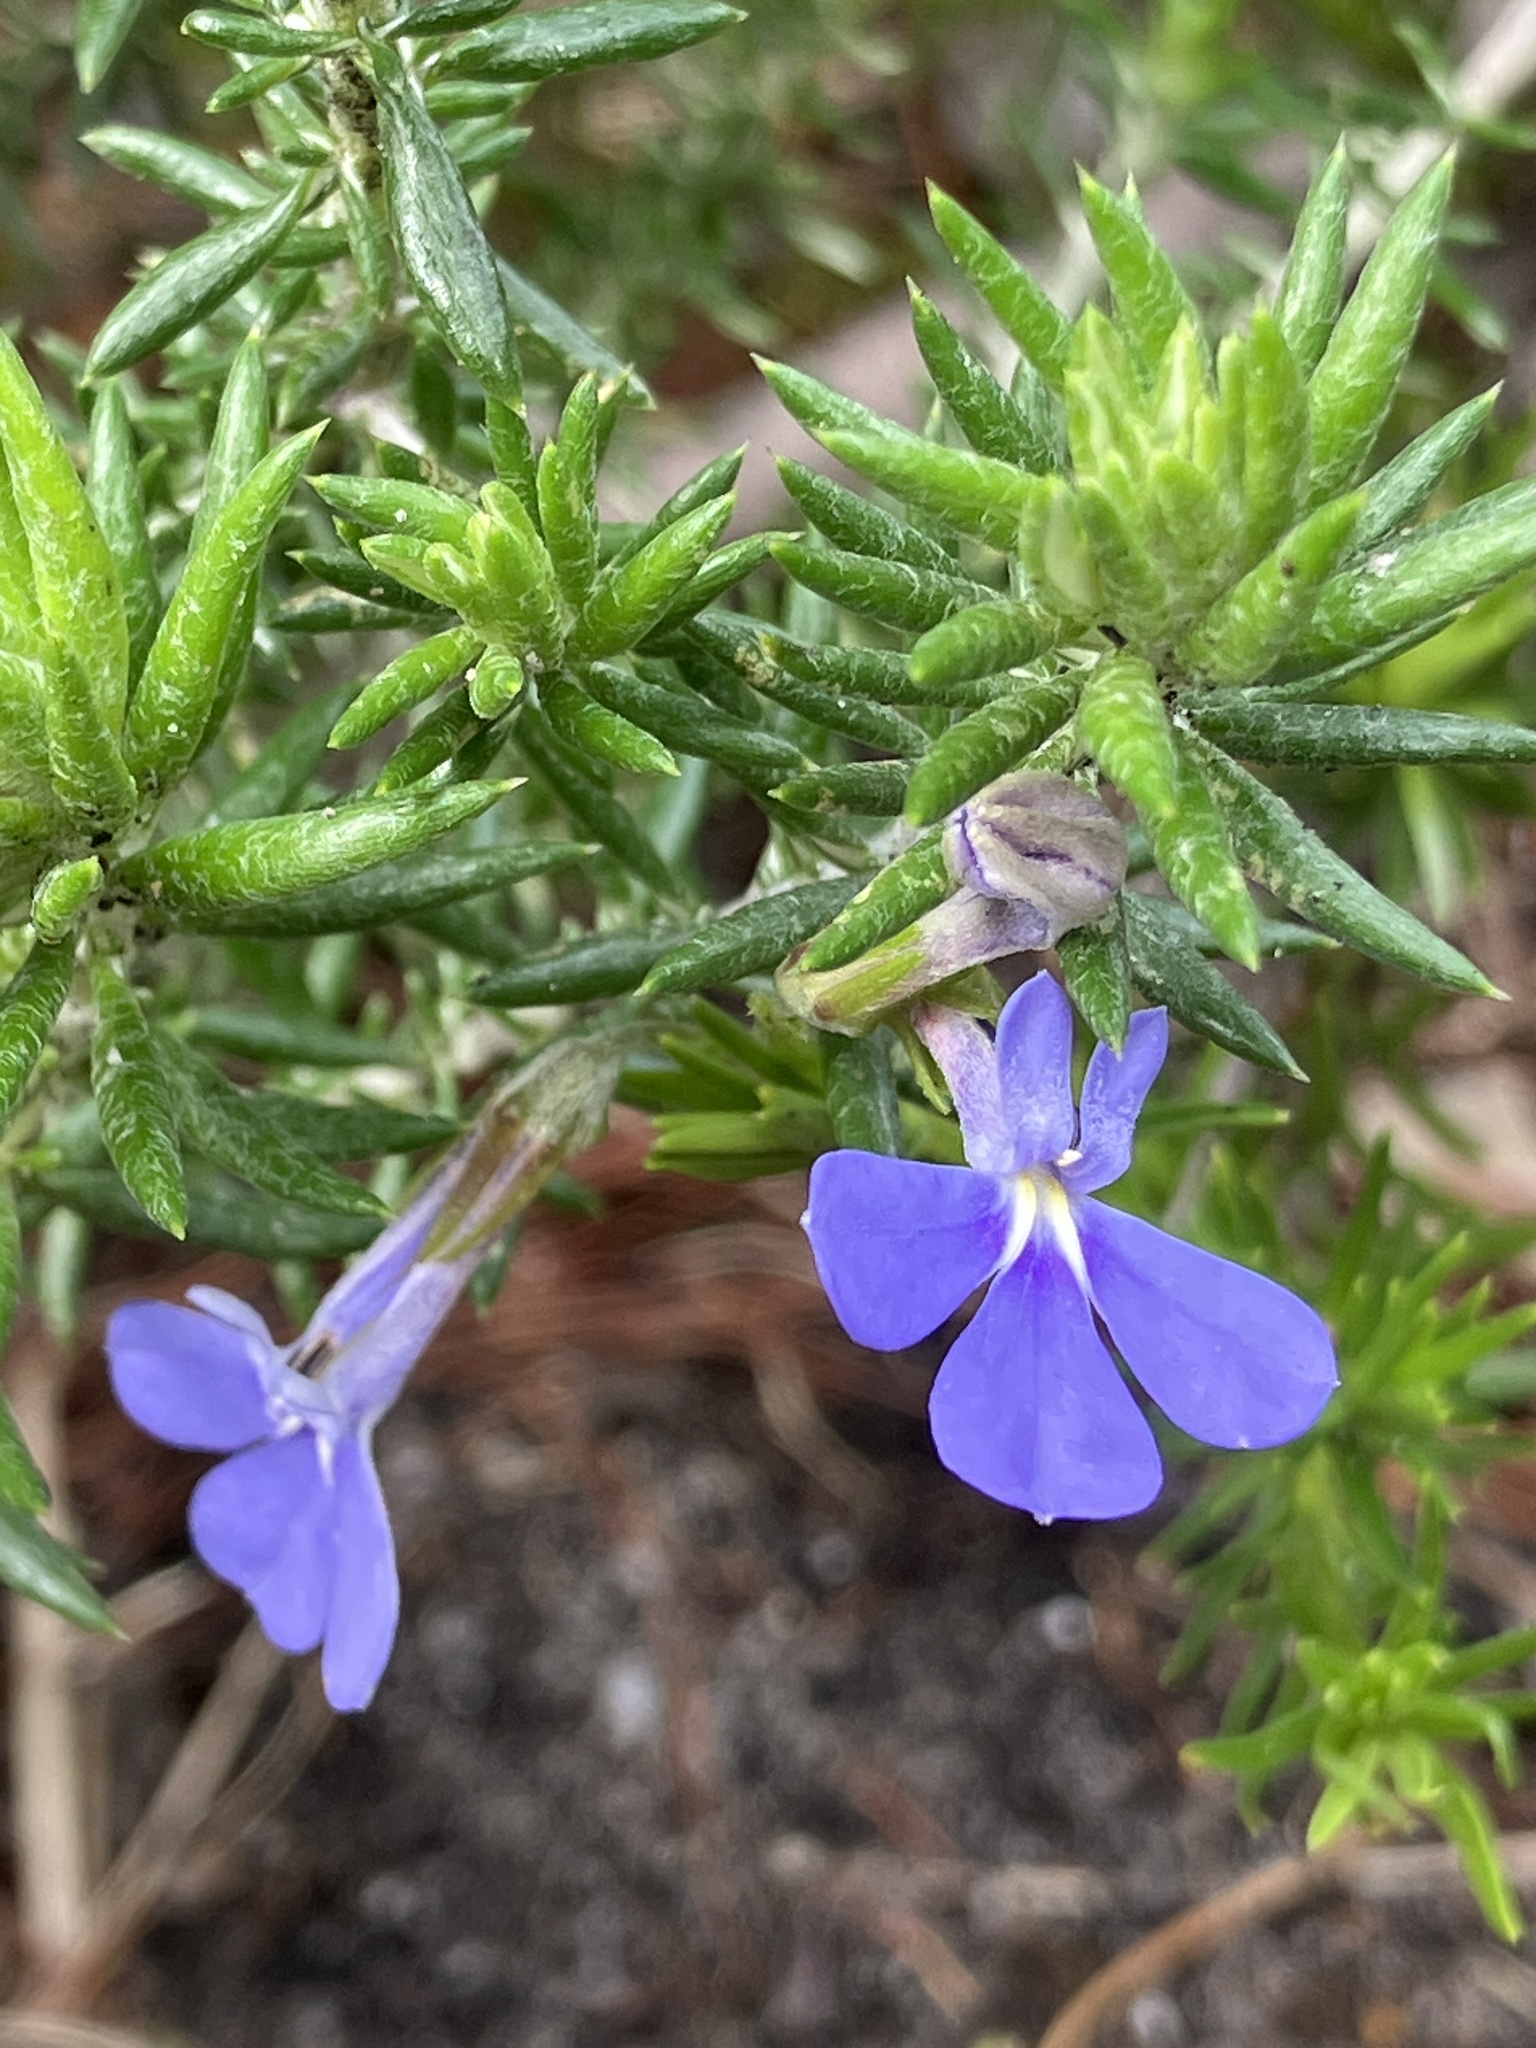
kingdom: Plantae
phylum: Tracheophyta
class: Magnoliopsida
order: Asterales
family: Campanulaceae
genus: Lobelia
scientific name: Lobelia pinifolia
